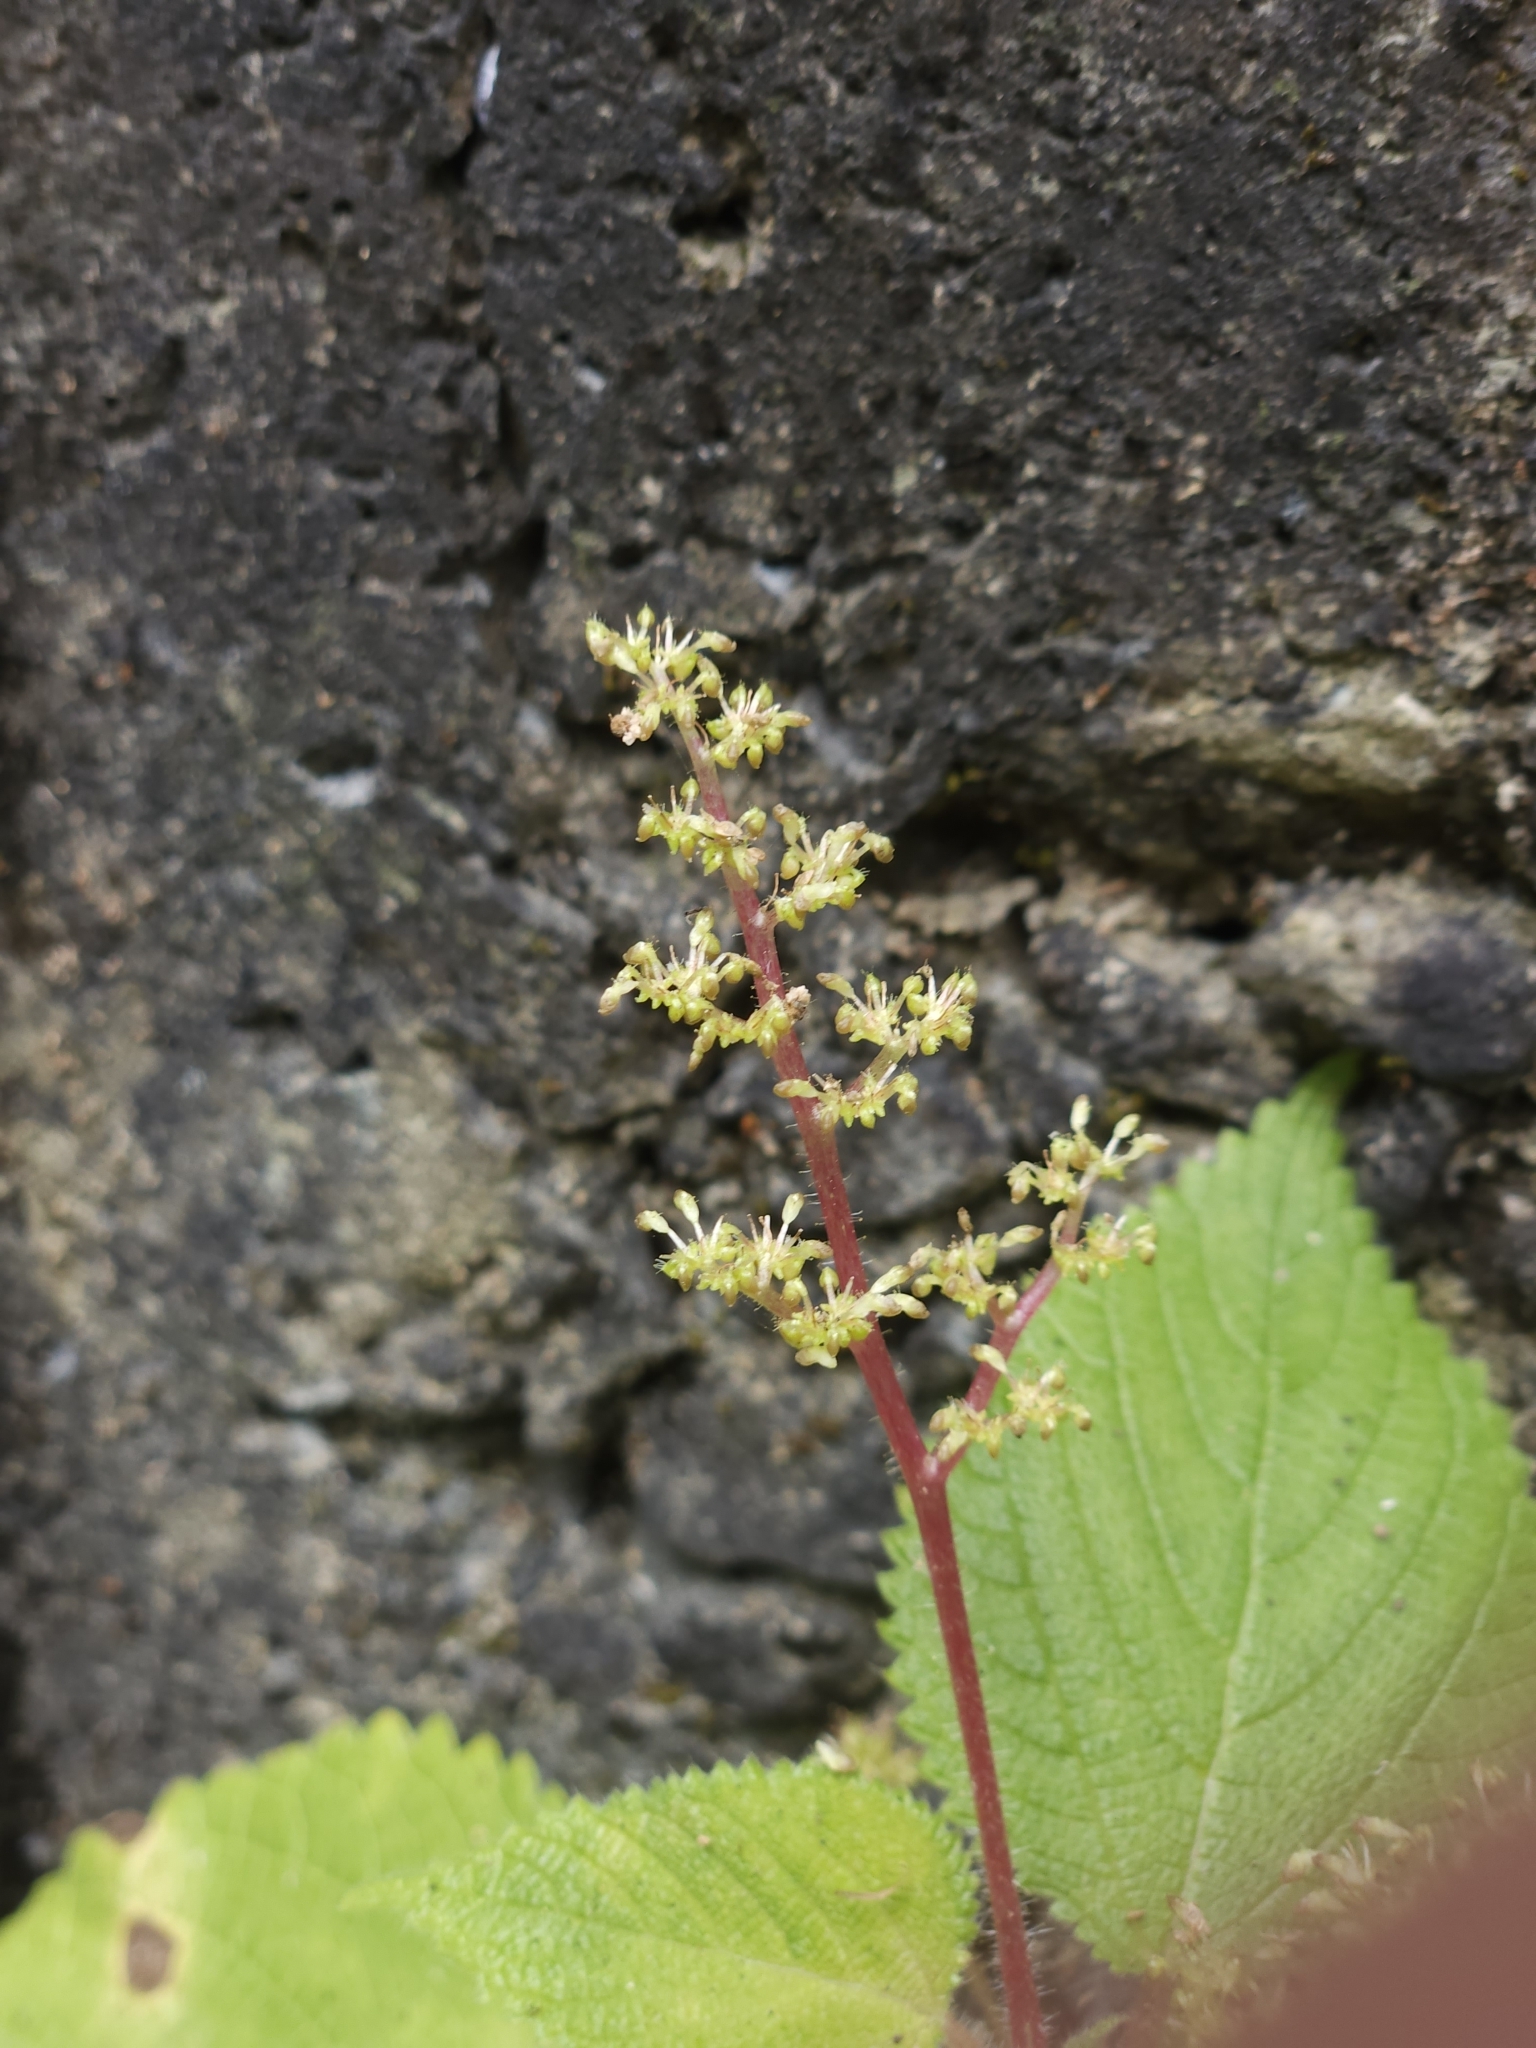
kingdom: Plantae
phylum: Tracheophyta
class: Magnoliopsida
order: Rosales
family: Urticaceae
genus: Laportea
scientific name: Laportea aestuans
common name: West indian woodnettle
